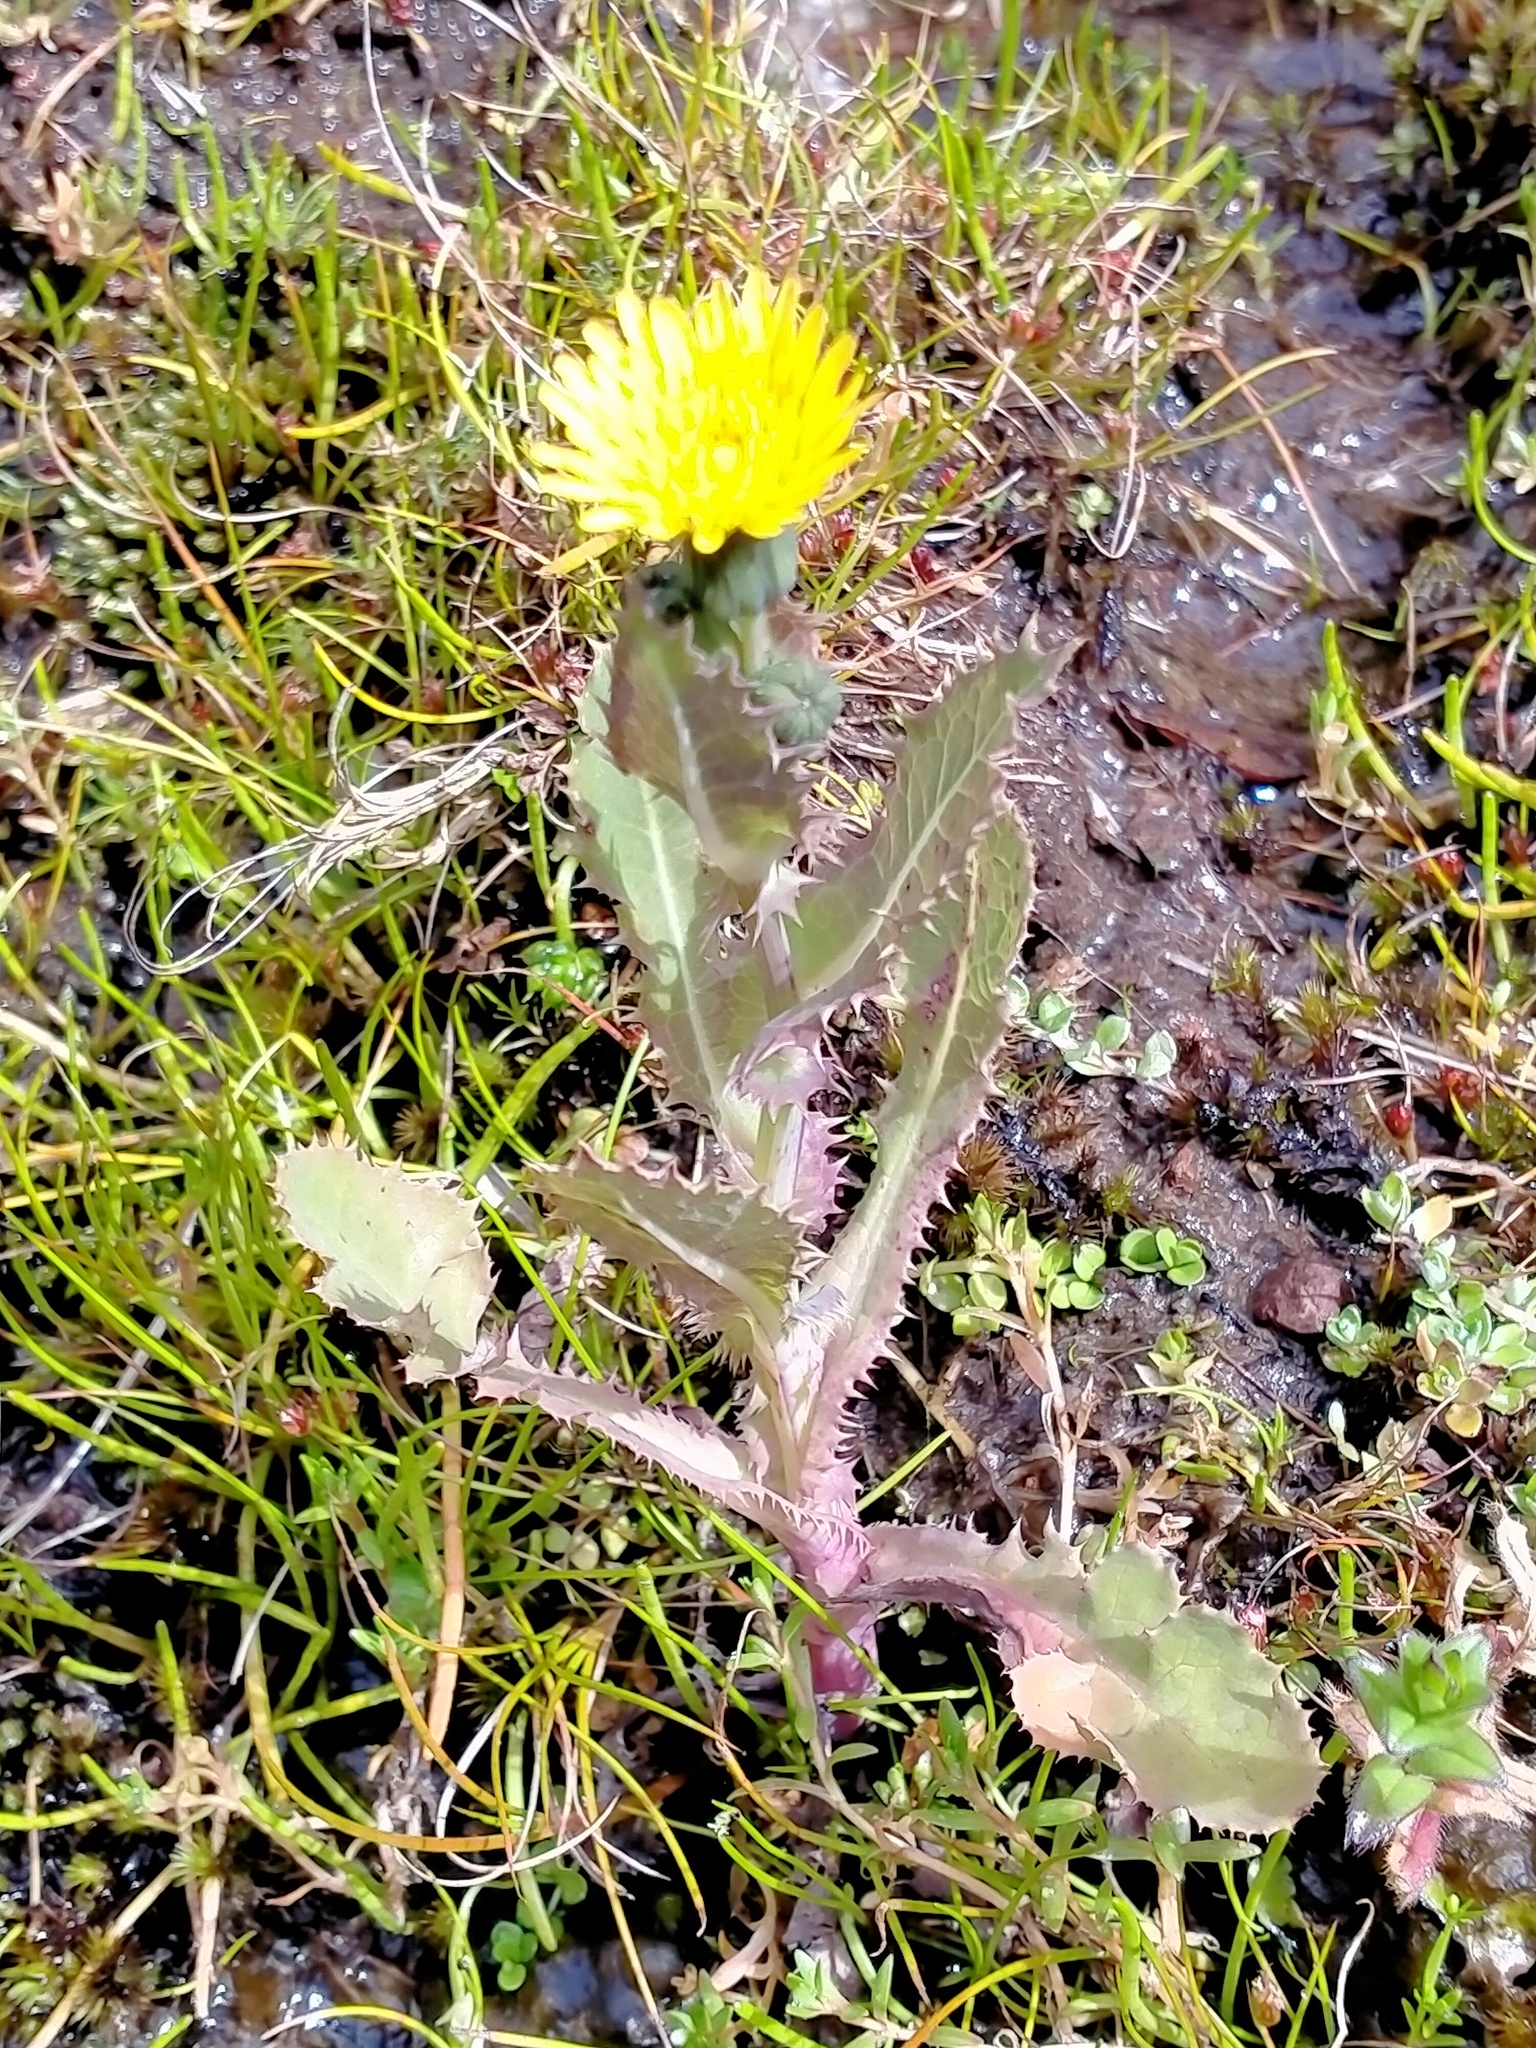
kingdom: Plantae
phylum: Tracheophyta
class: Magnoliopsida
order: Asterales
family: Asteraceae
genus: Sonchus
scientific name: Sonchus oleraceus
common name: Common sowthistle
